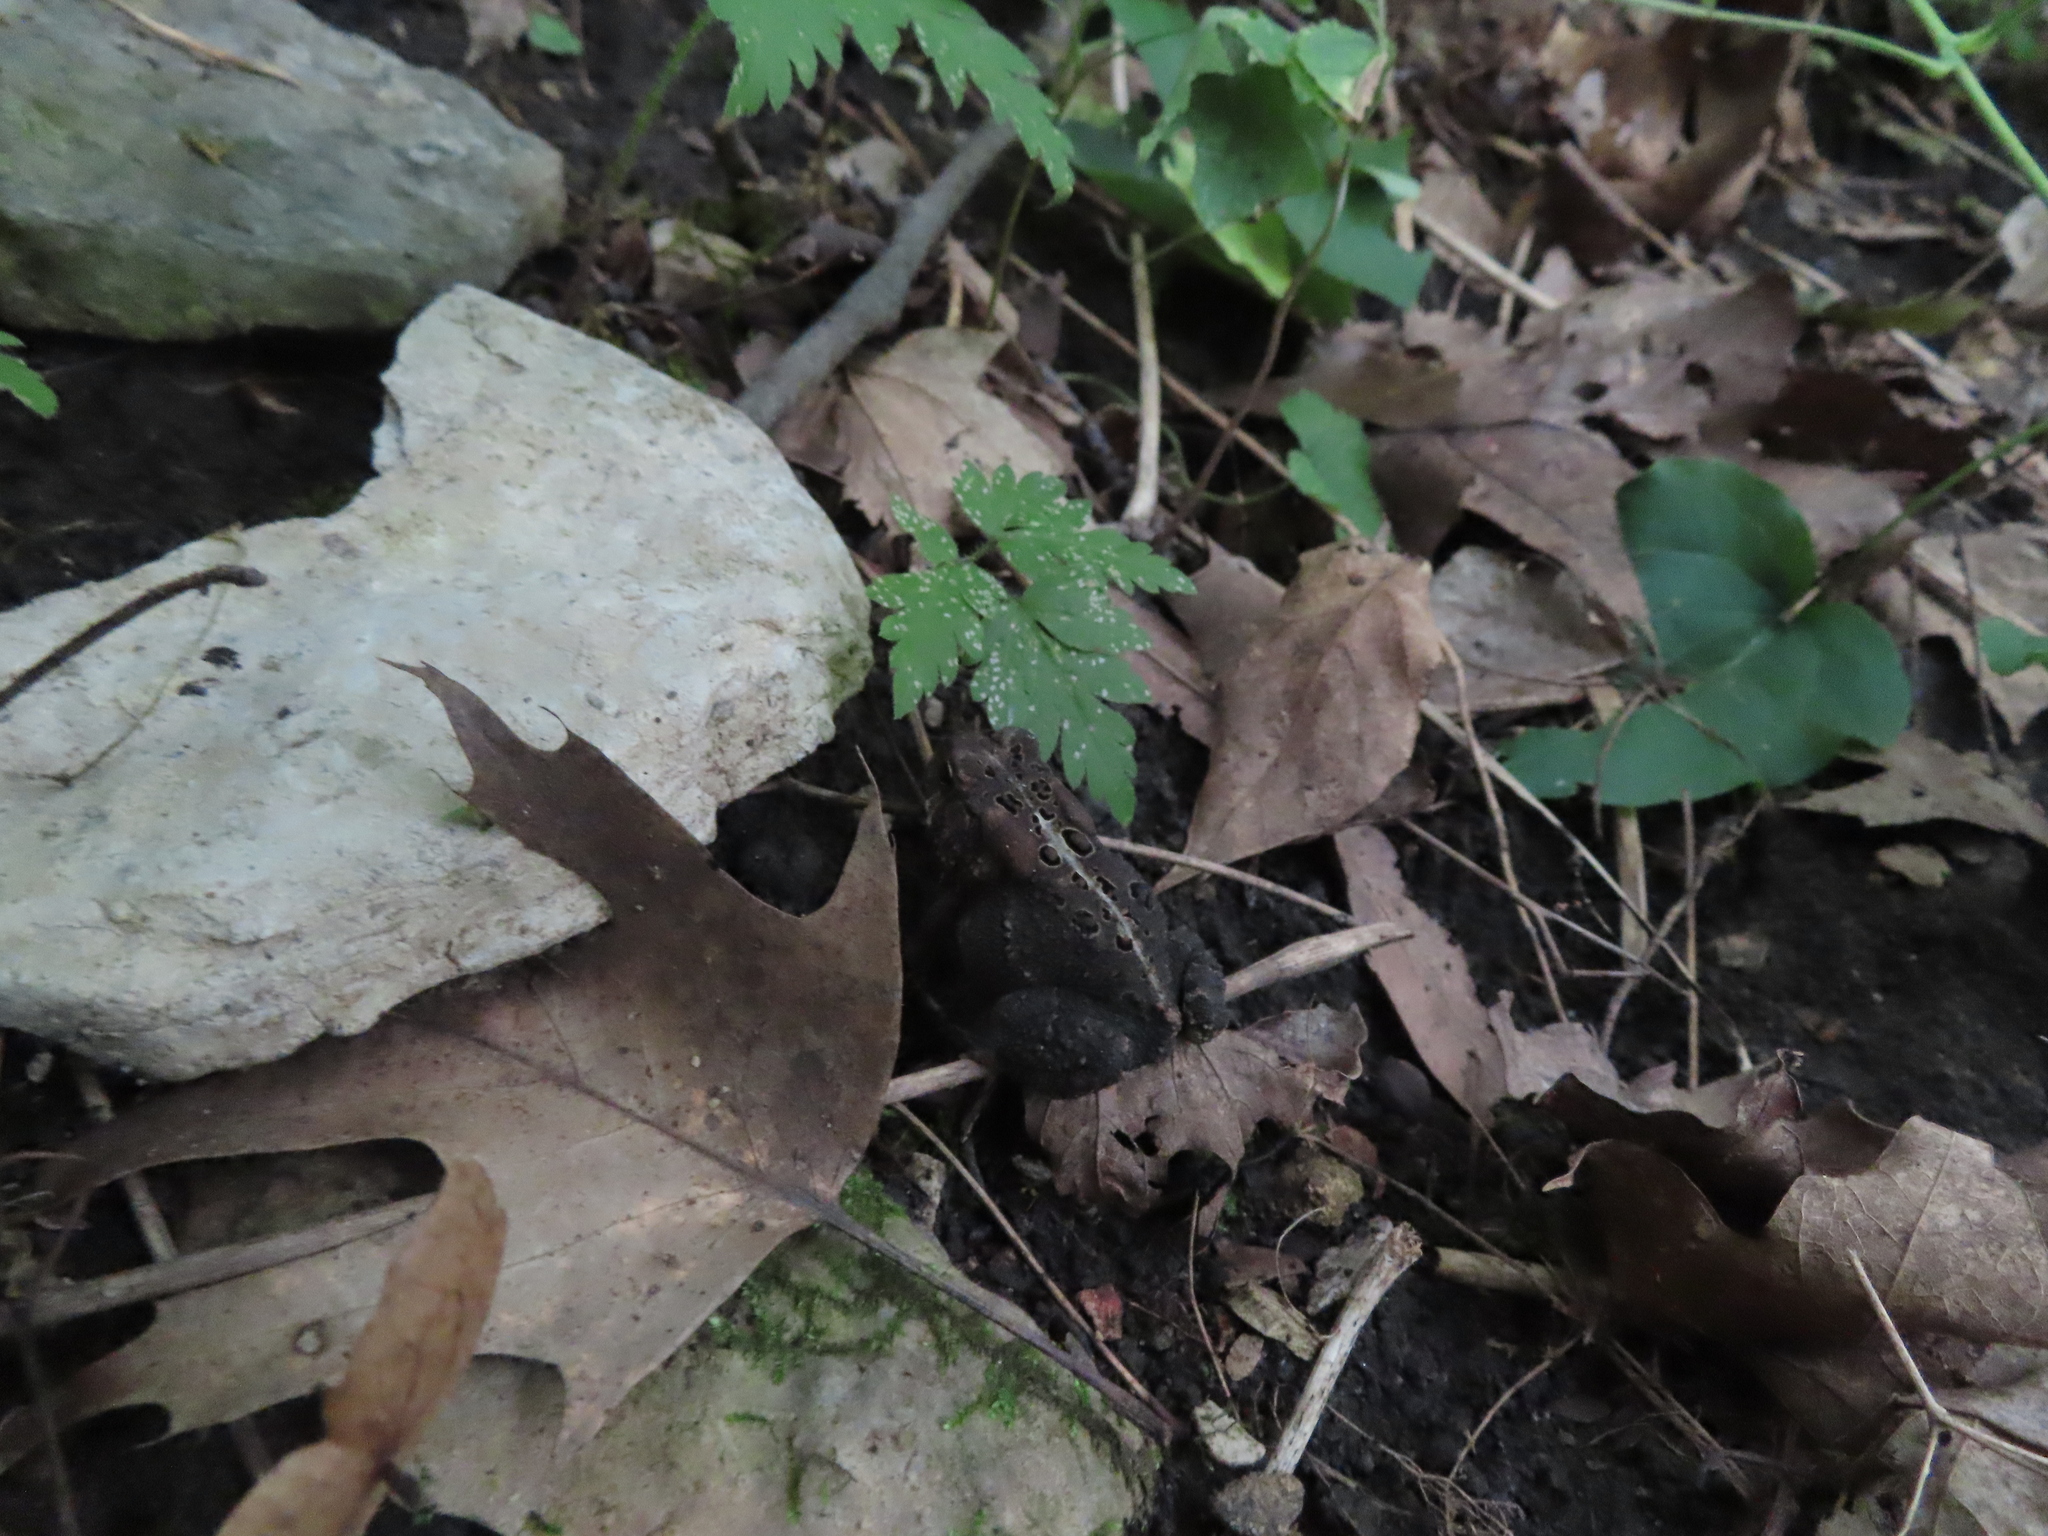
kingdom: Animalia
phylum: Chordata
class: Amphibia
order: Anura
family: Bufonidae
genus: Anaxyrus
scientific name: Anaxyrus americanus
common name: American toad
